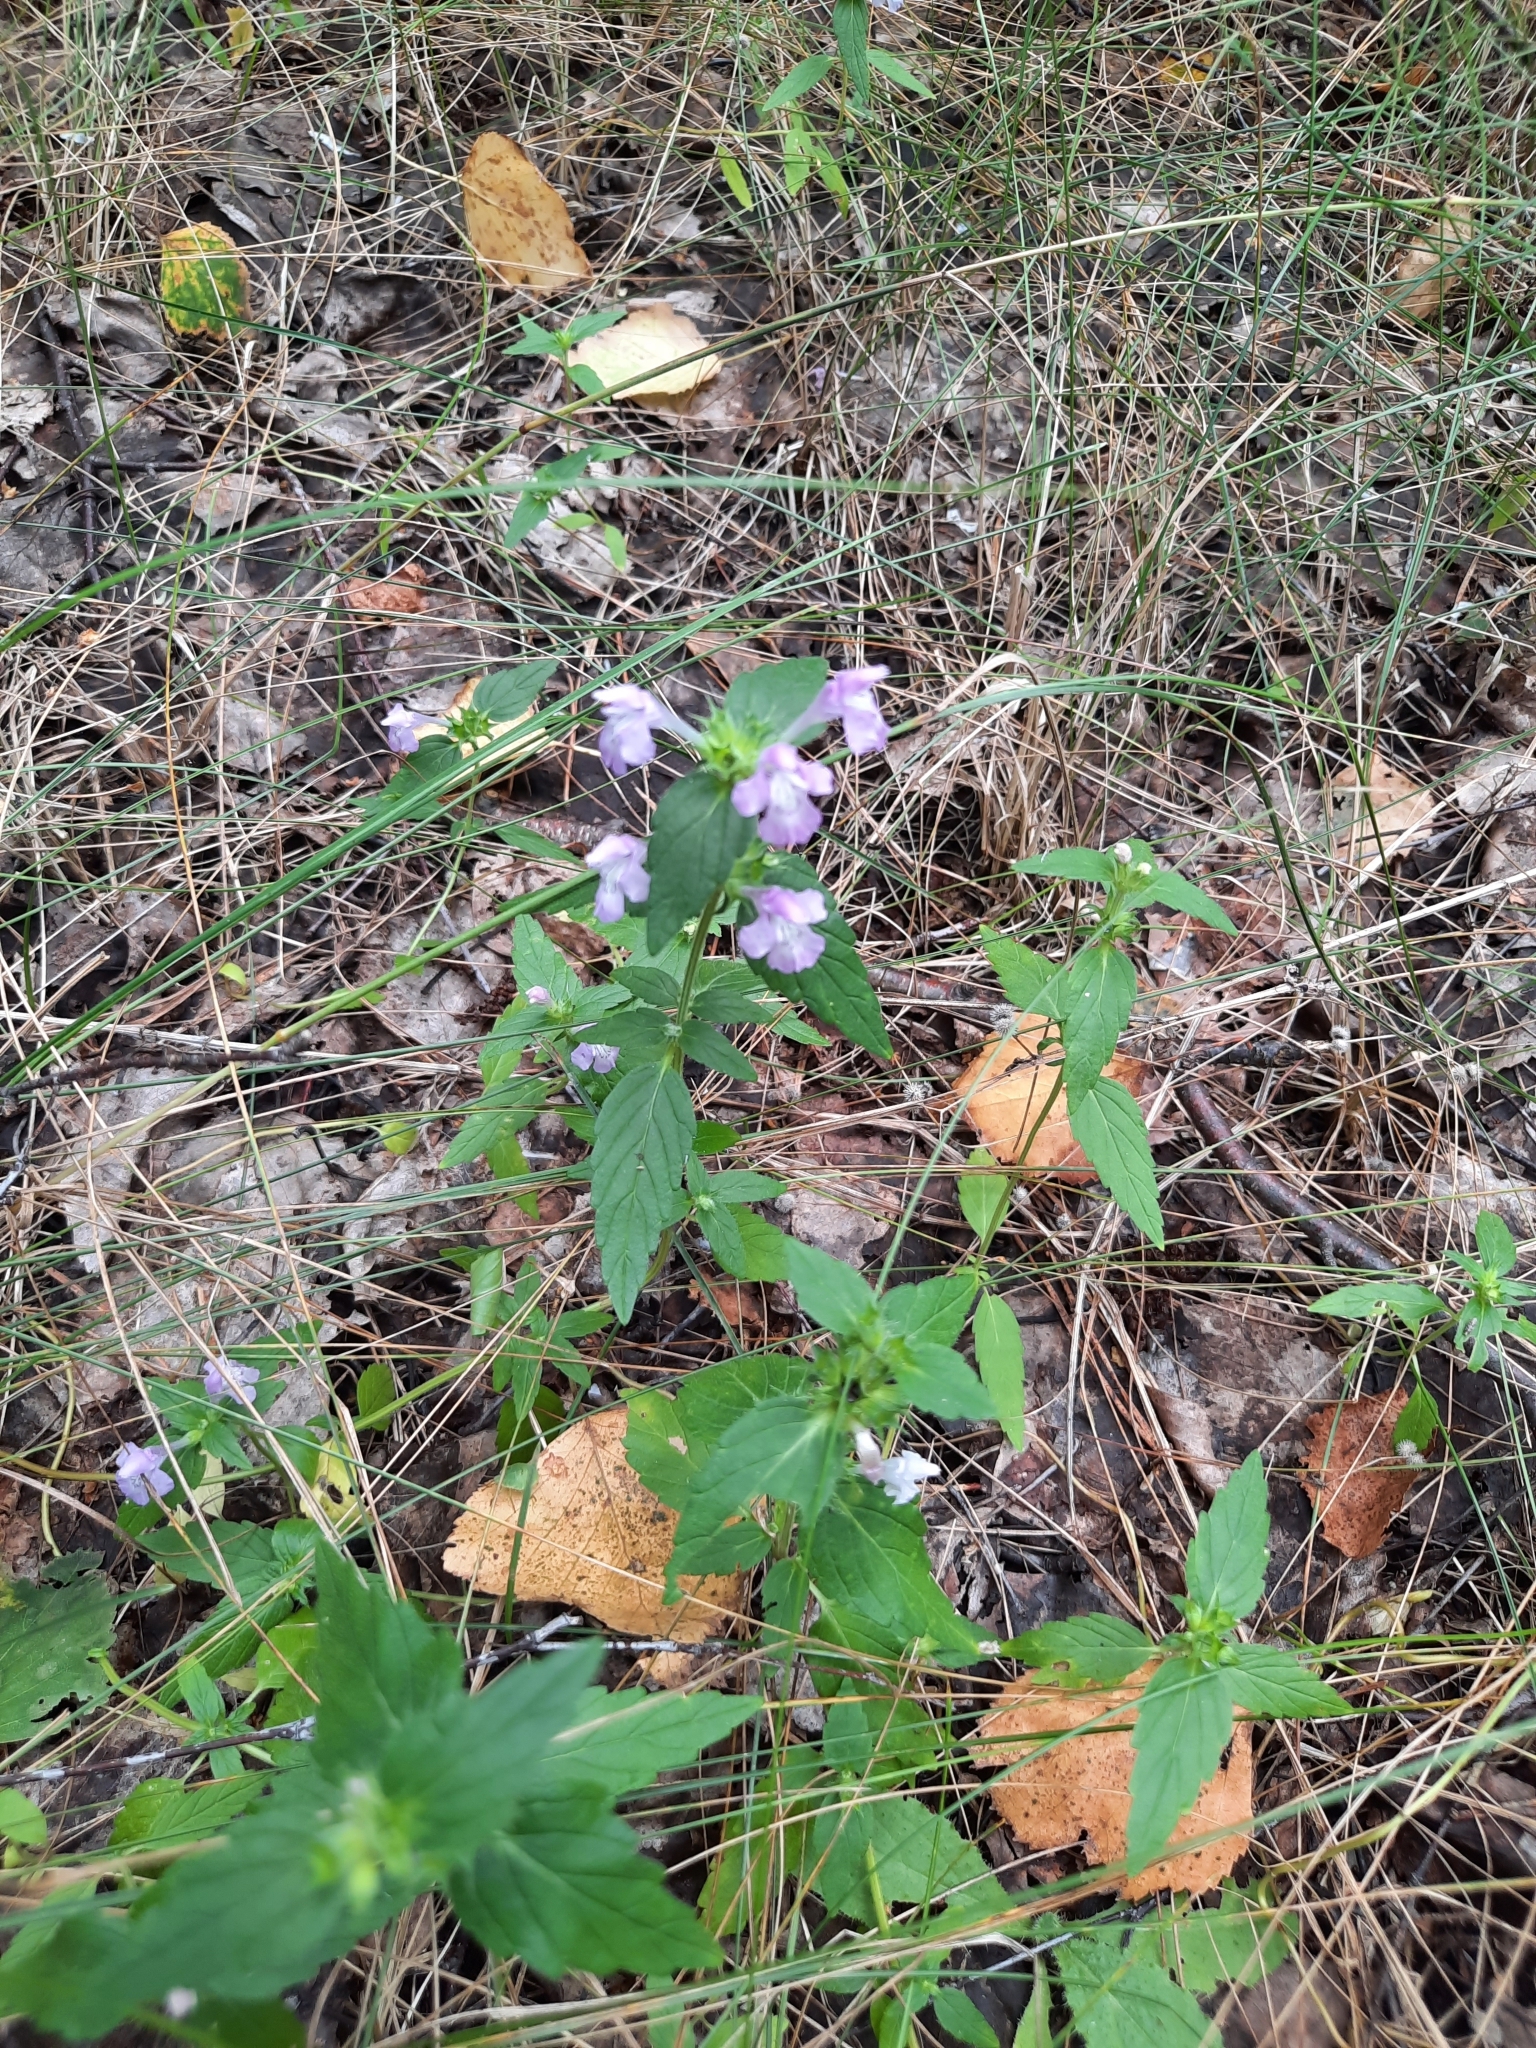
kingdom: Plantae
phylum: Tracheophyta
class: Magnoliopsida
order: Lamiales
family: Lamiaceae
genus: Galeopsis
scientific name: Galeopsis ladanum
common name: Broad-leaved hemp-nettle
